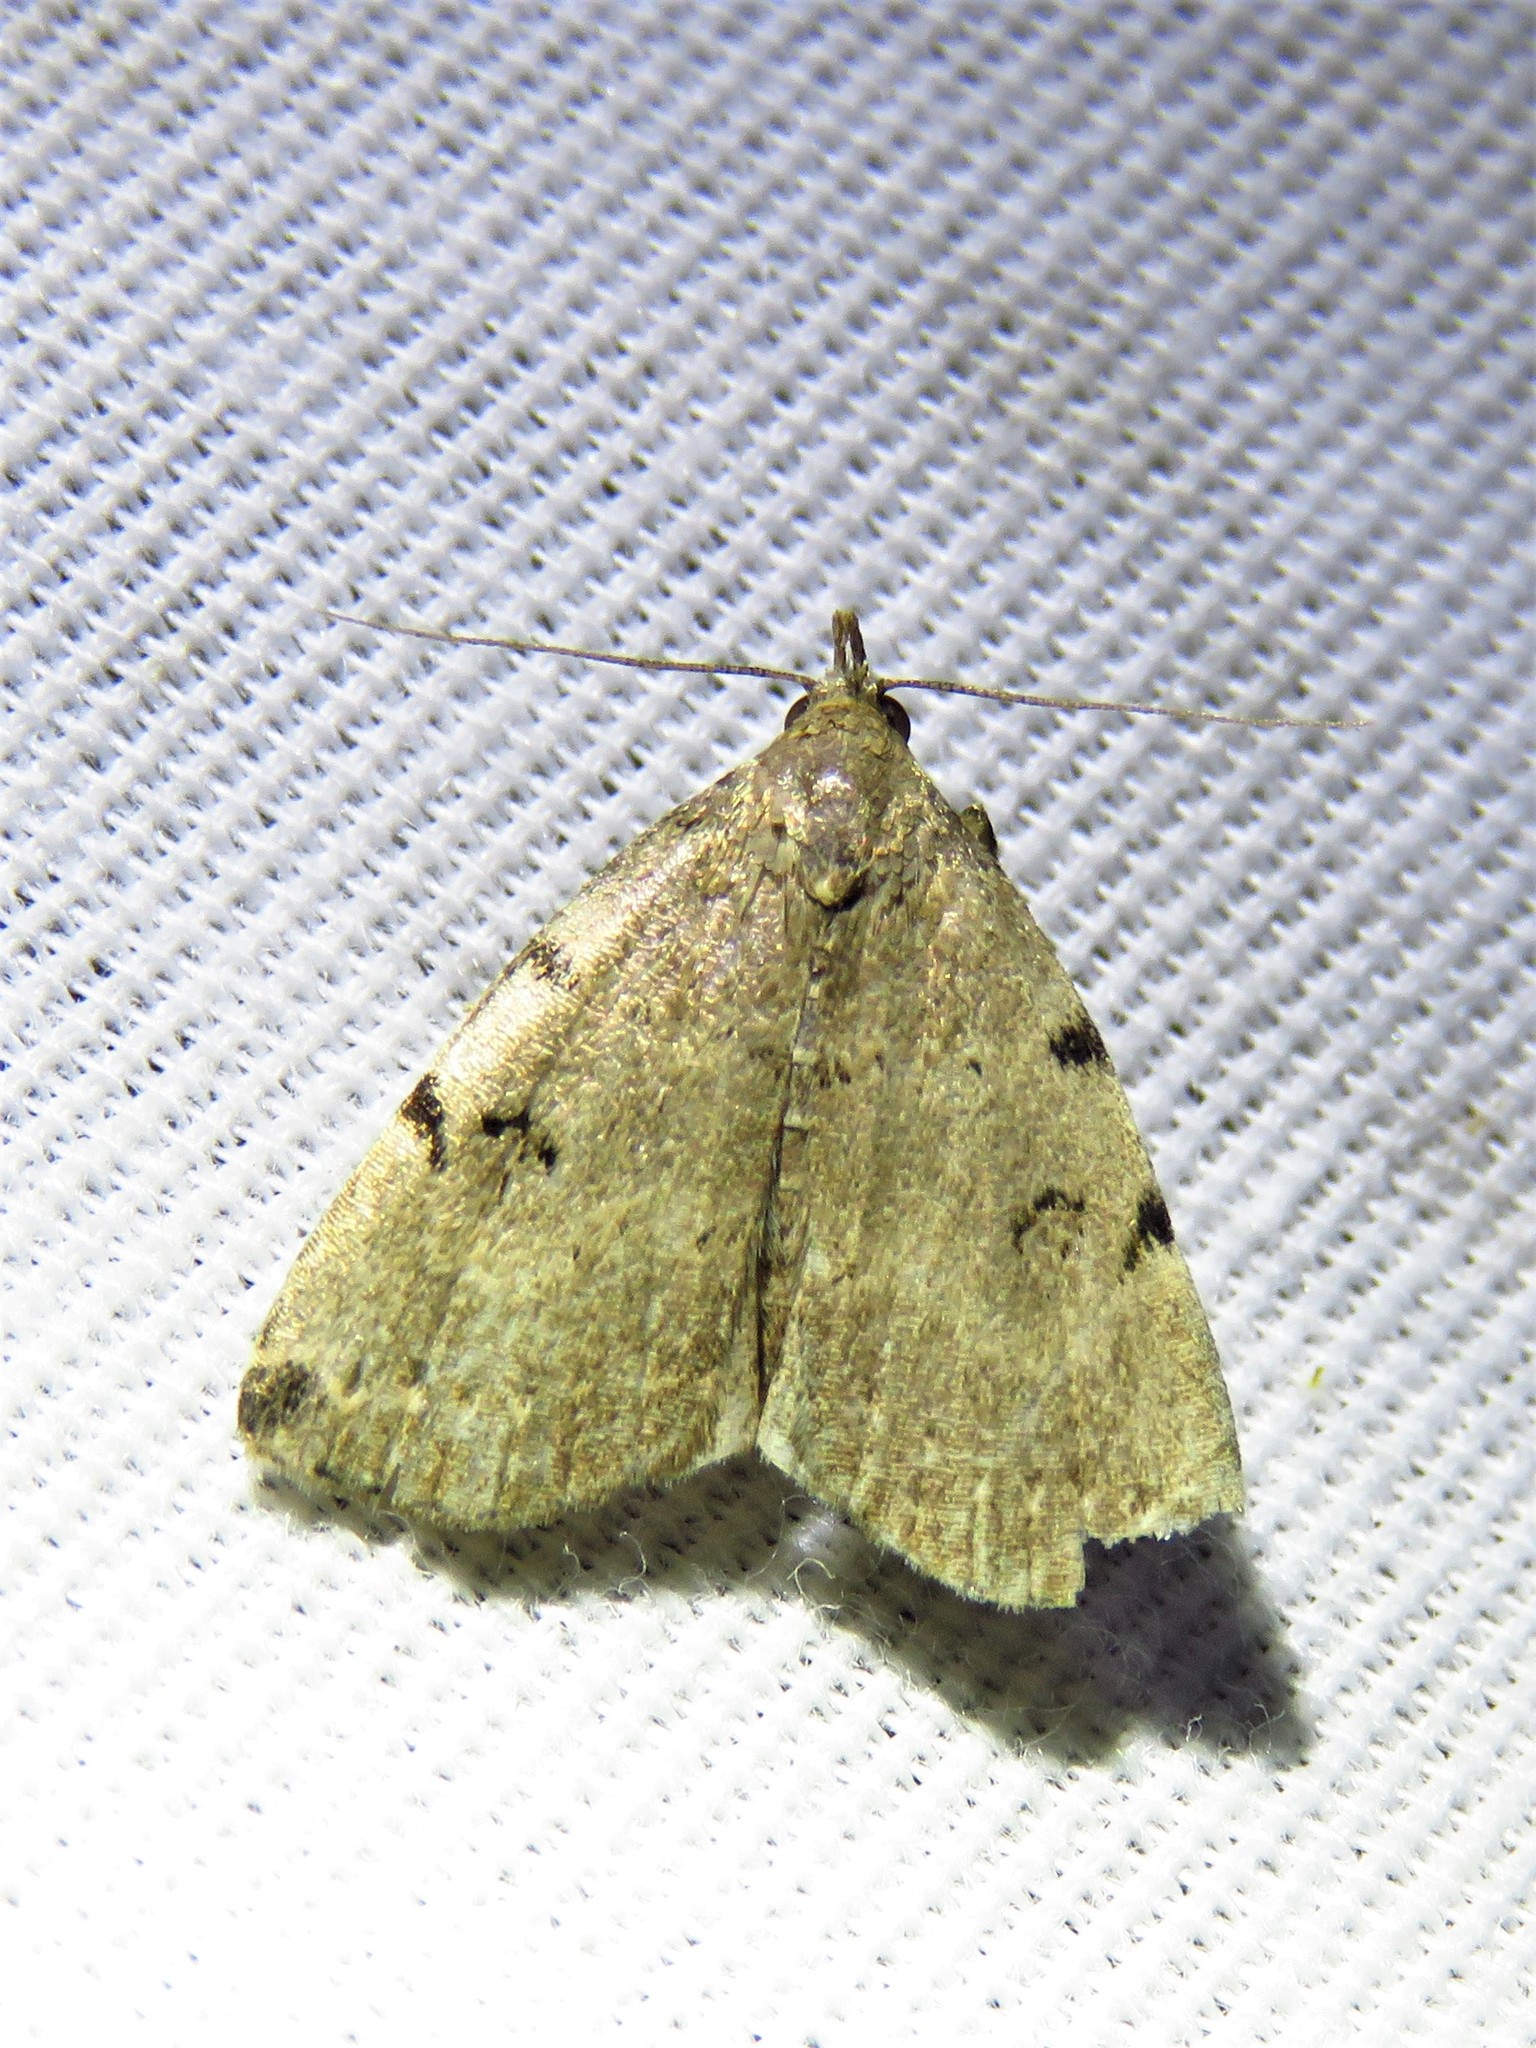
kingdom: Animalia
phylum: Arthropoda
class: Insecta
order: Lepidoptera
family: Erebidae
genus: Zanclognatha
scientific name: Zanclognatha lituralis
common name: Lettered fan-foot
